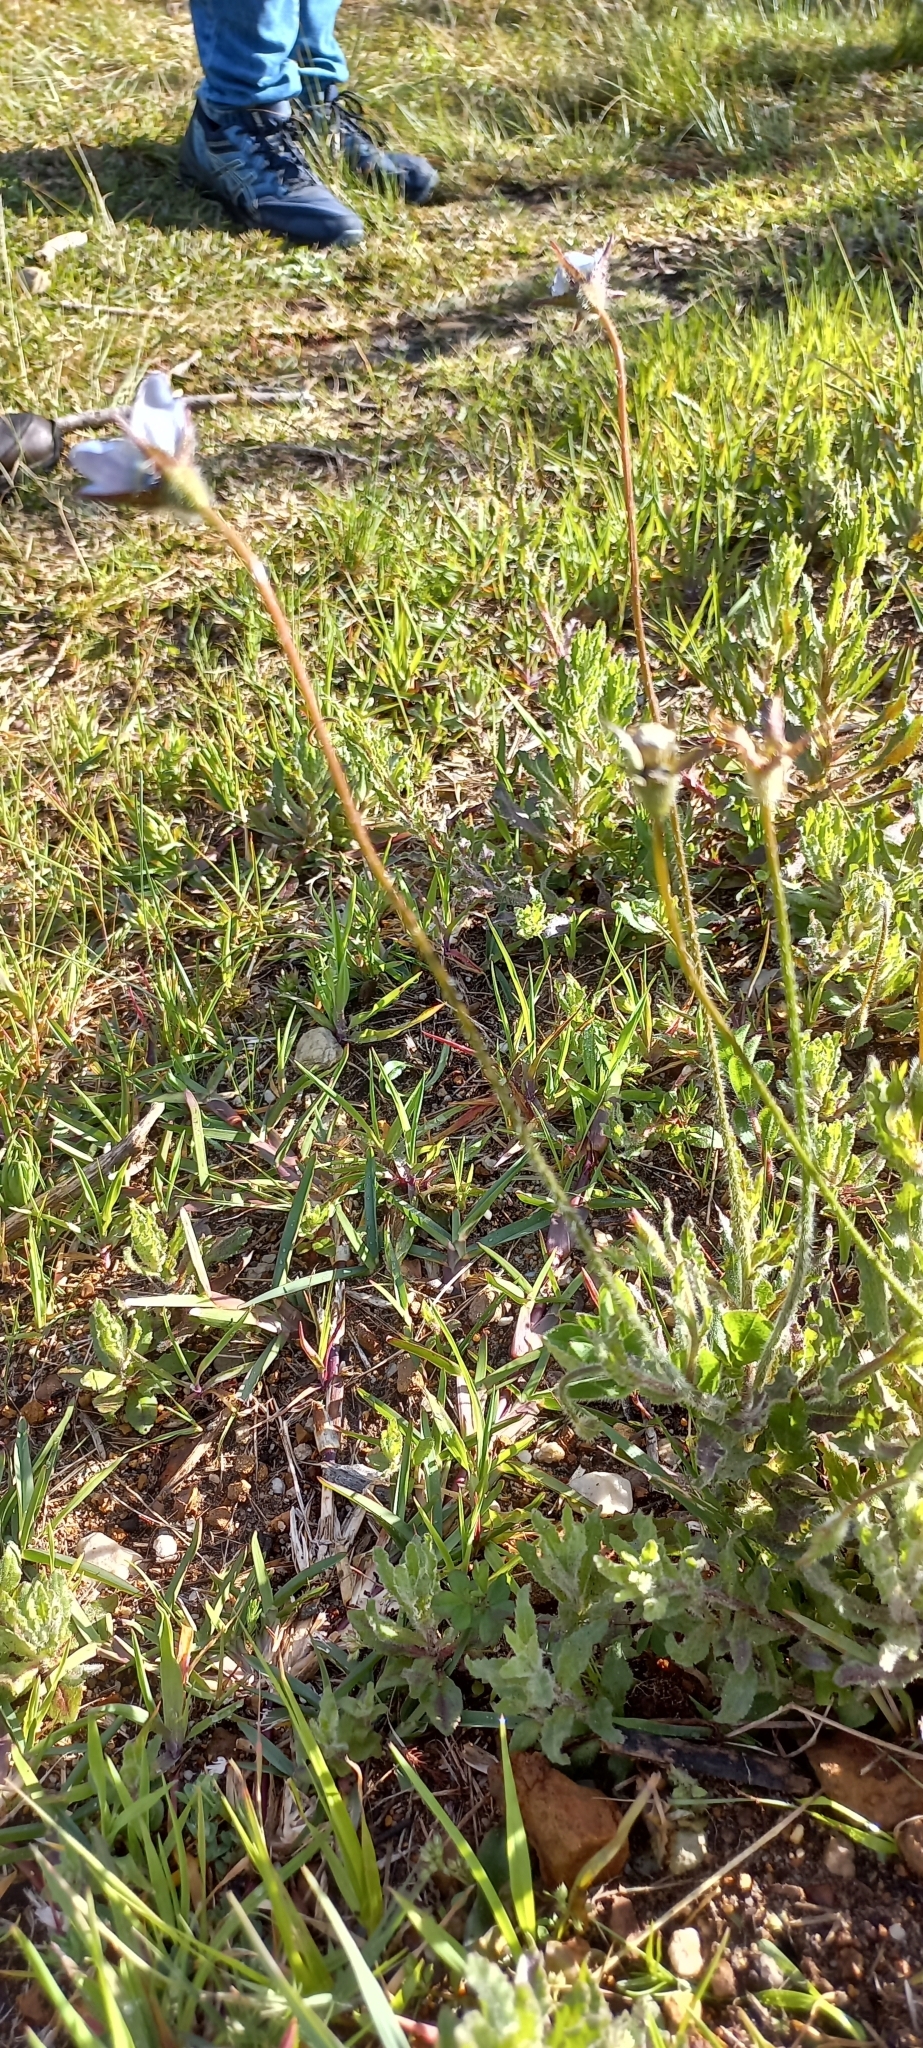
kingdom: Plantae
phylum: Tracheophyta
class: Magnoliopsida
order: Asterales
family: Campanulaceae
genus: Wahlenbergia
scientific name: Wahlenbergia capensis
